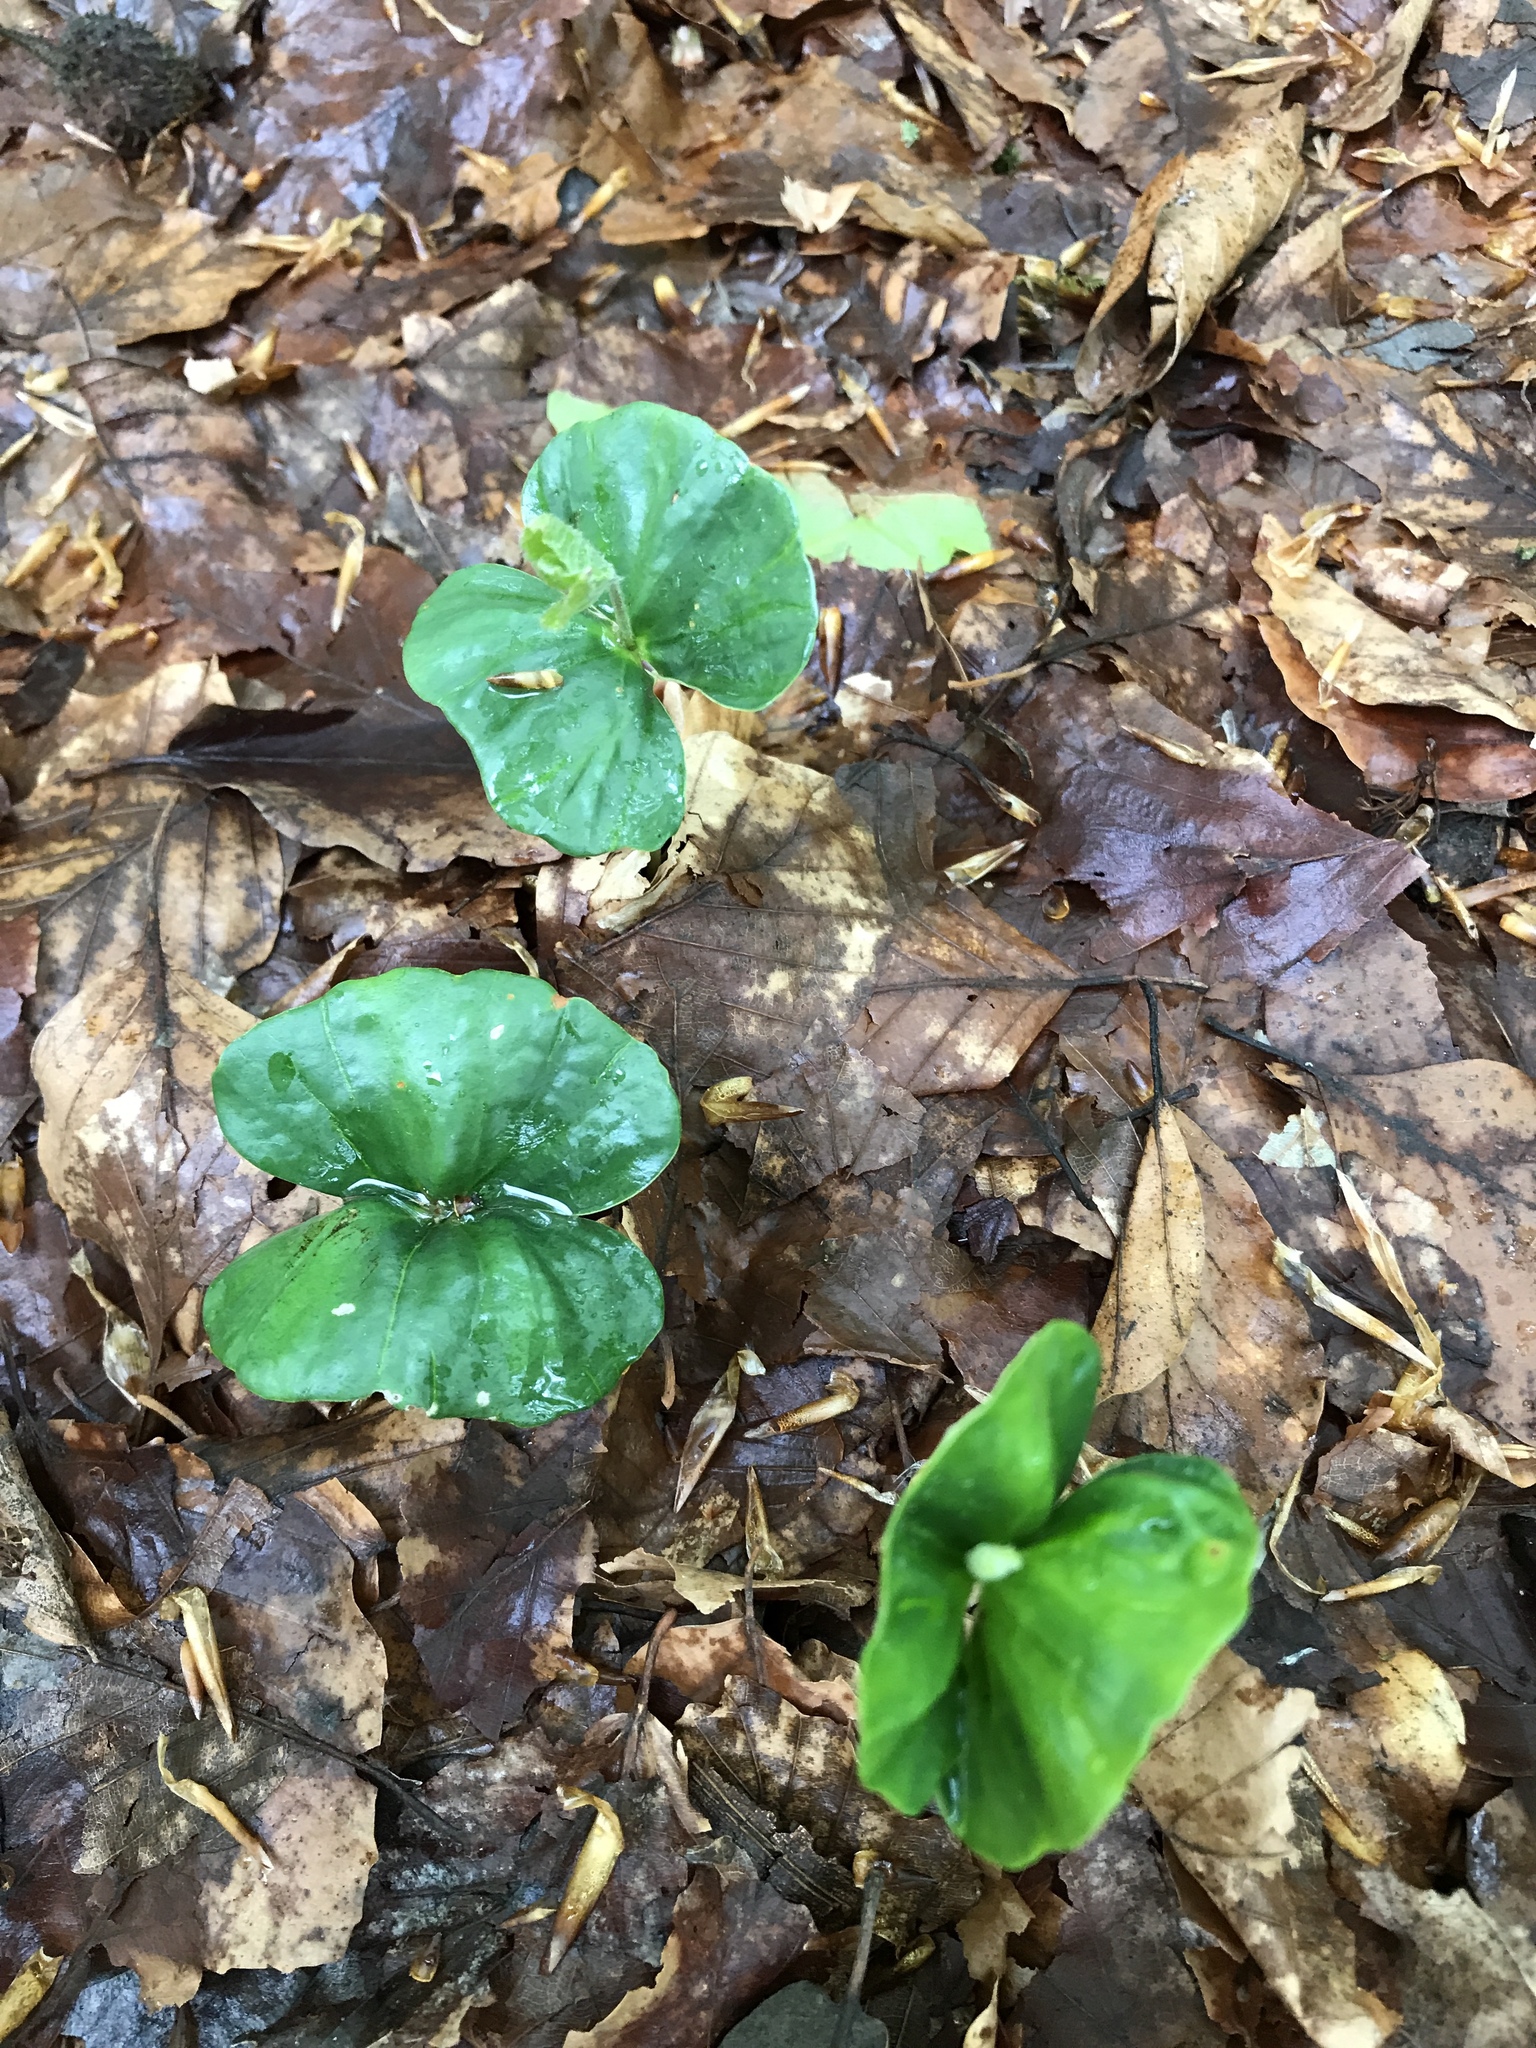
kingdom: Plantae
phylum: Tracheophyta
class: Magnoliopsida
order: Fagales
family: Fagaceae
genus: Fagus
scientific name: Fagus sylvatica
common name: Beech
